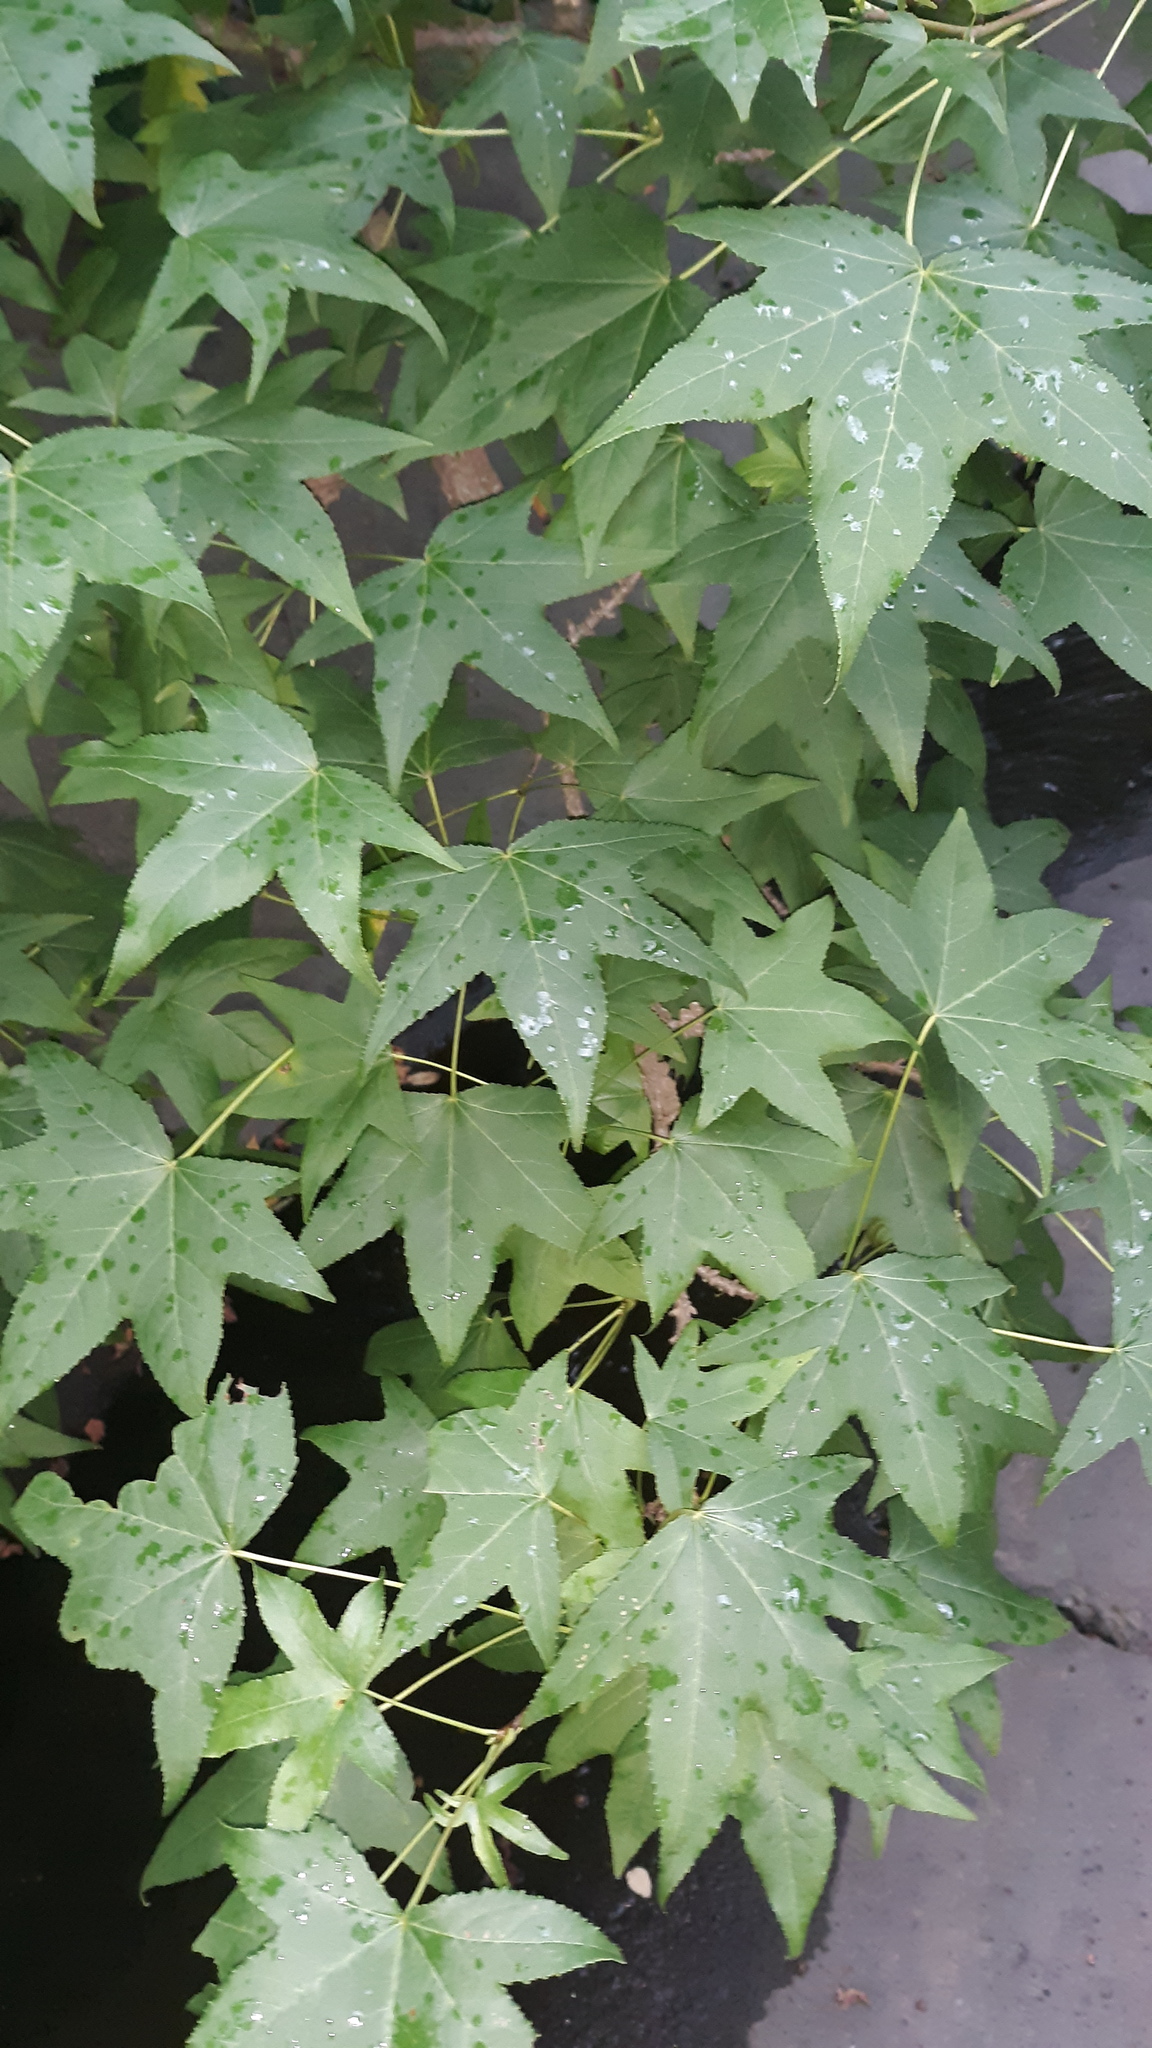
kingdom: Plantae
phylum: Tracheophyta
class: Magnoliopsida
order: Saxifragales
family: Altingiaceae
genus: Liquidambar
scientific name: Liquidambar styraciflua
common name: Sweet gum
